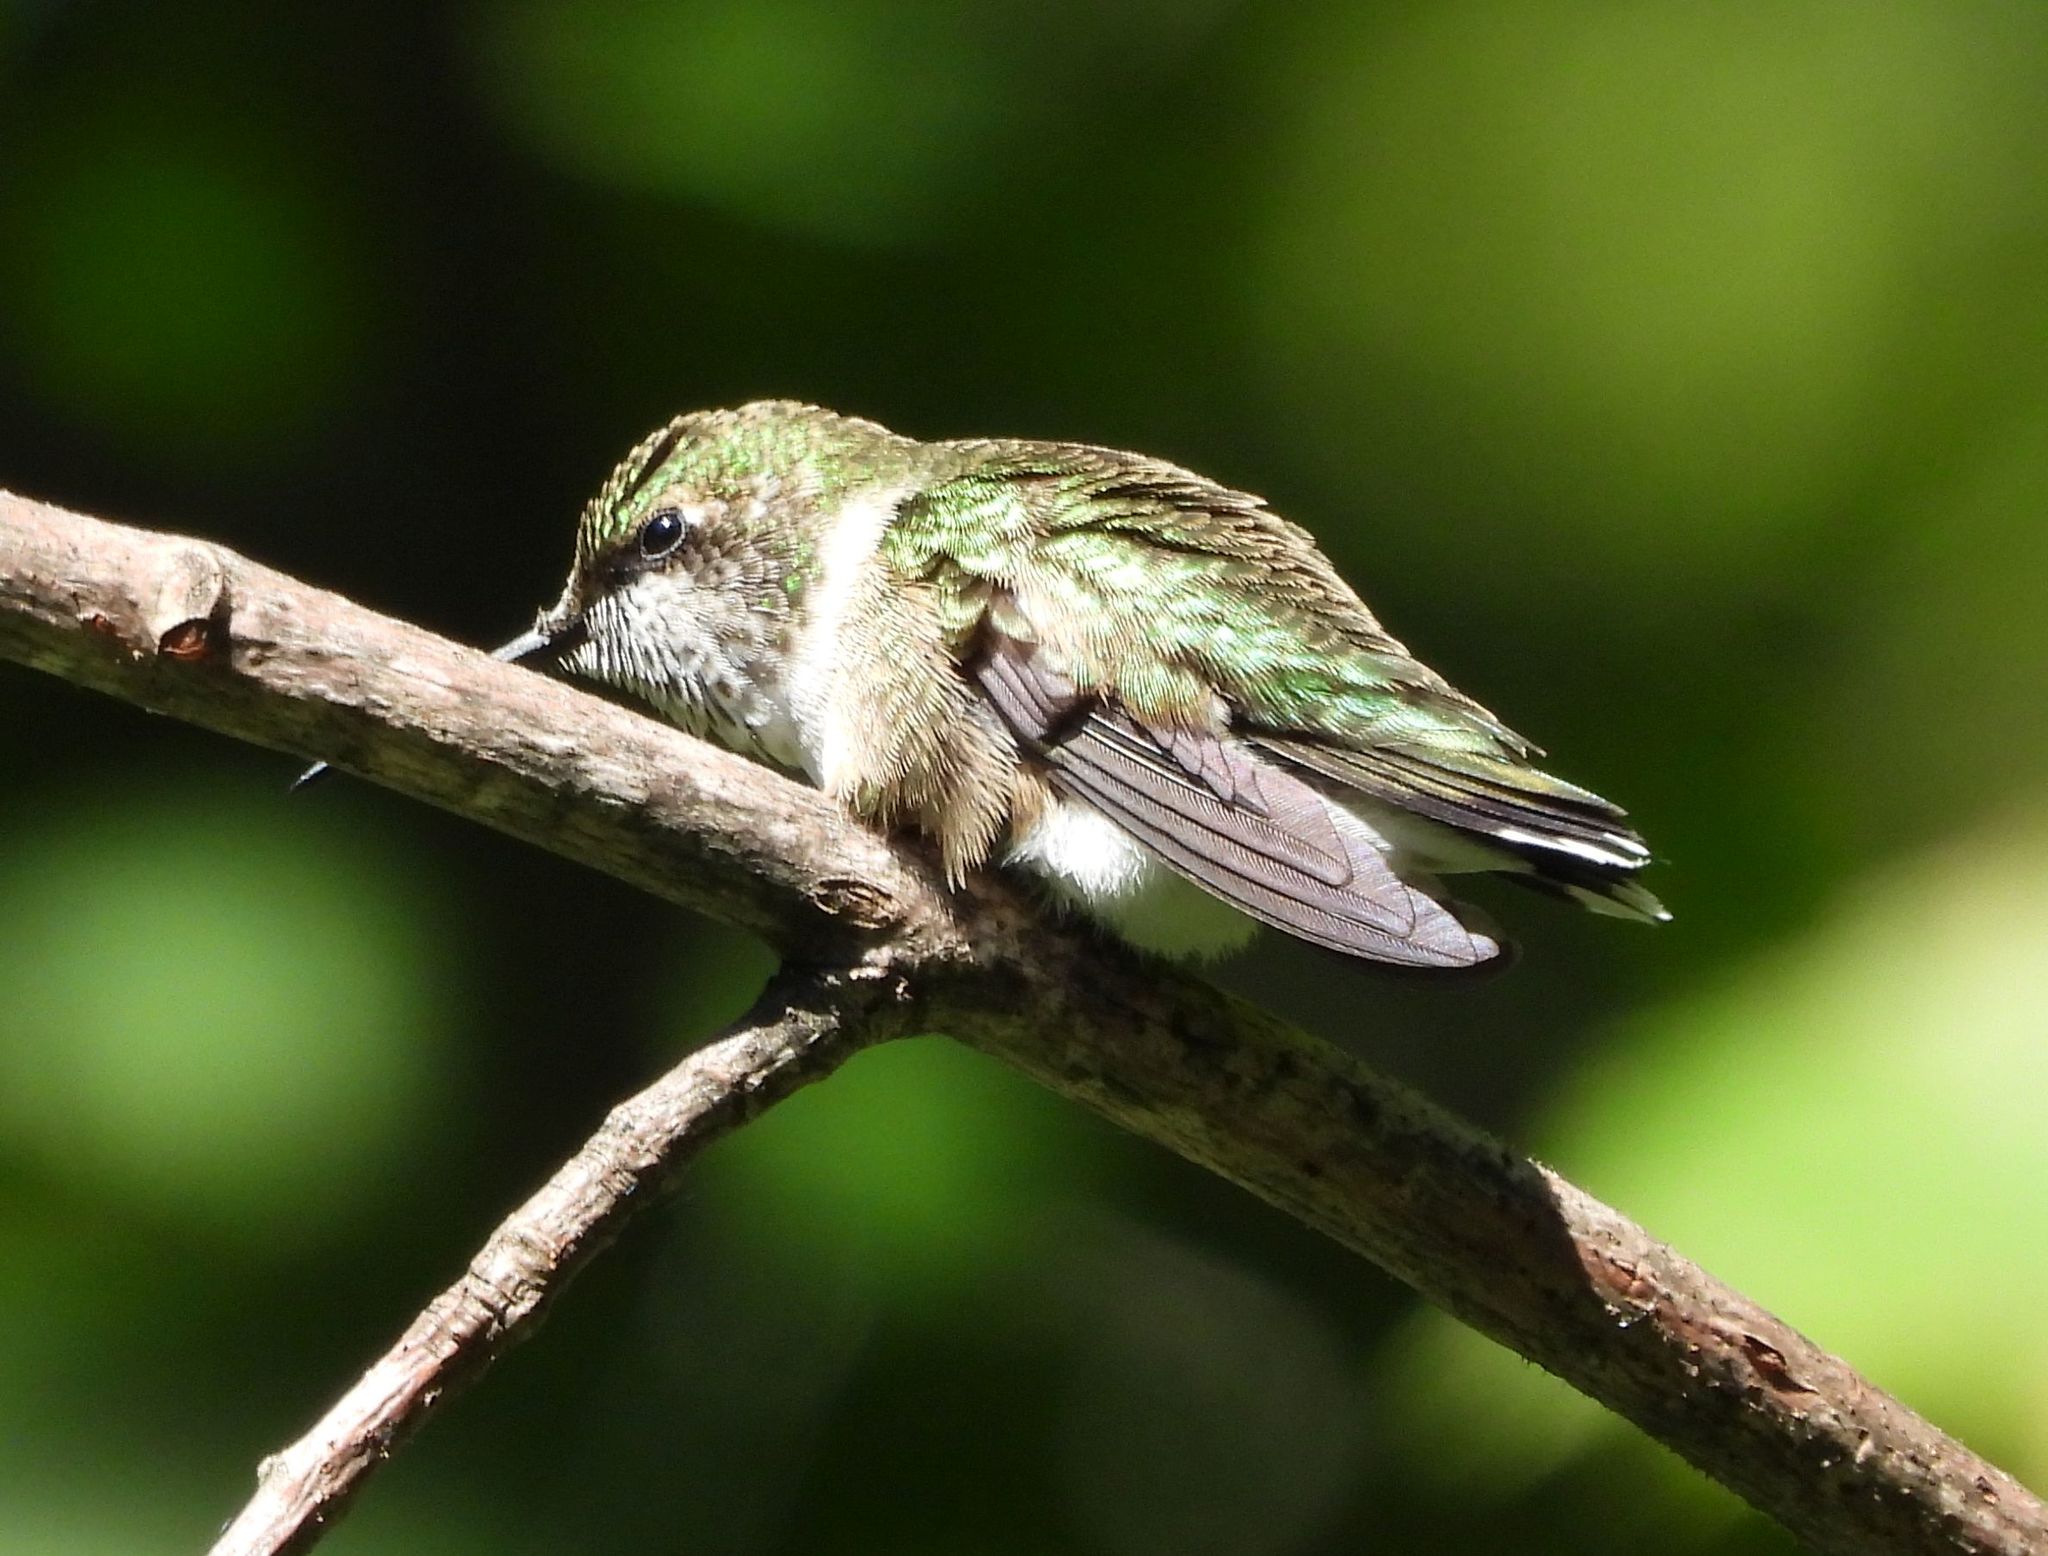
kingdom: Animalia
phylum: Chordata
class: Aves
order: Apodiformes
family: Trochilidae
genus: Archilochus
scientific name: Archilochus colubris
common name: Ruby-throated hummingbird
